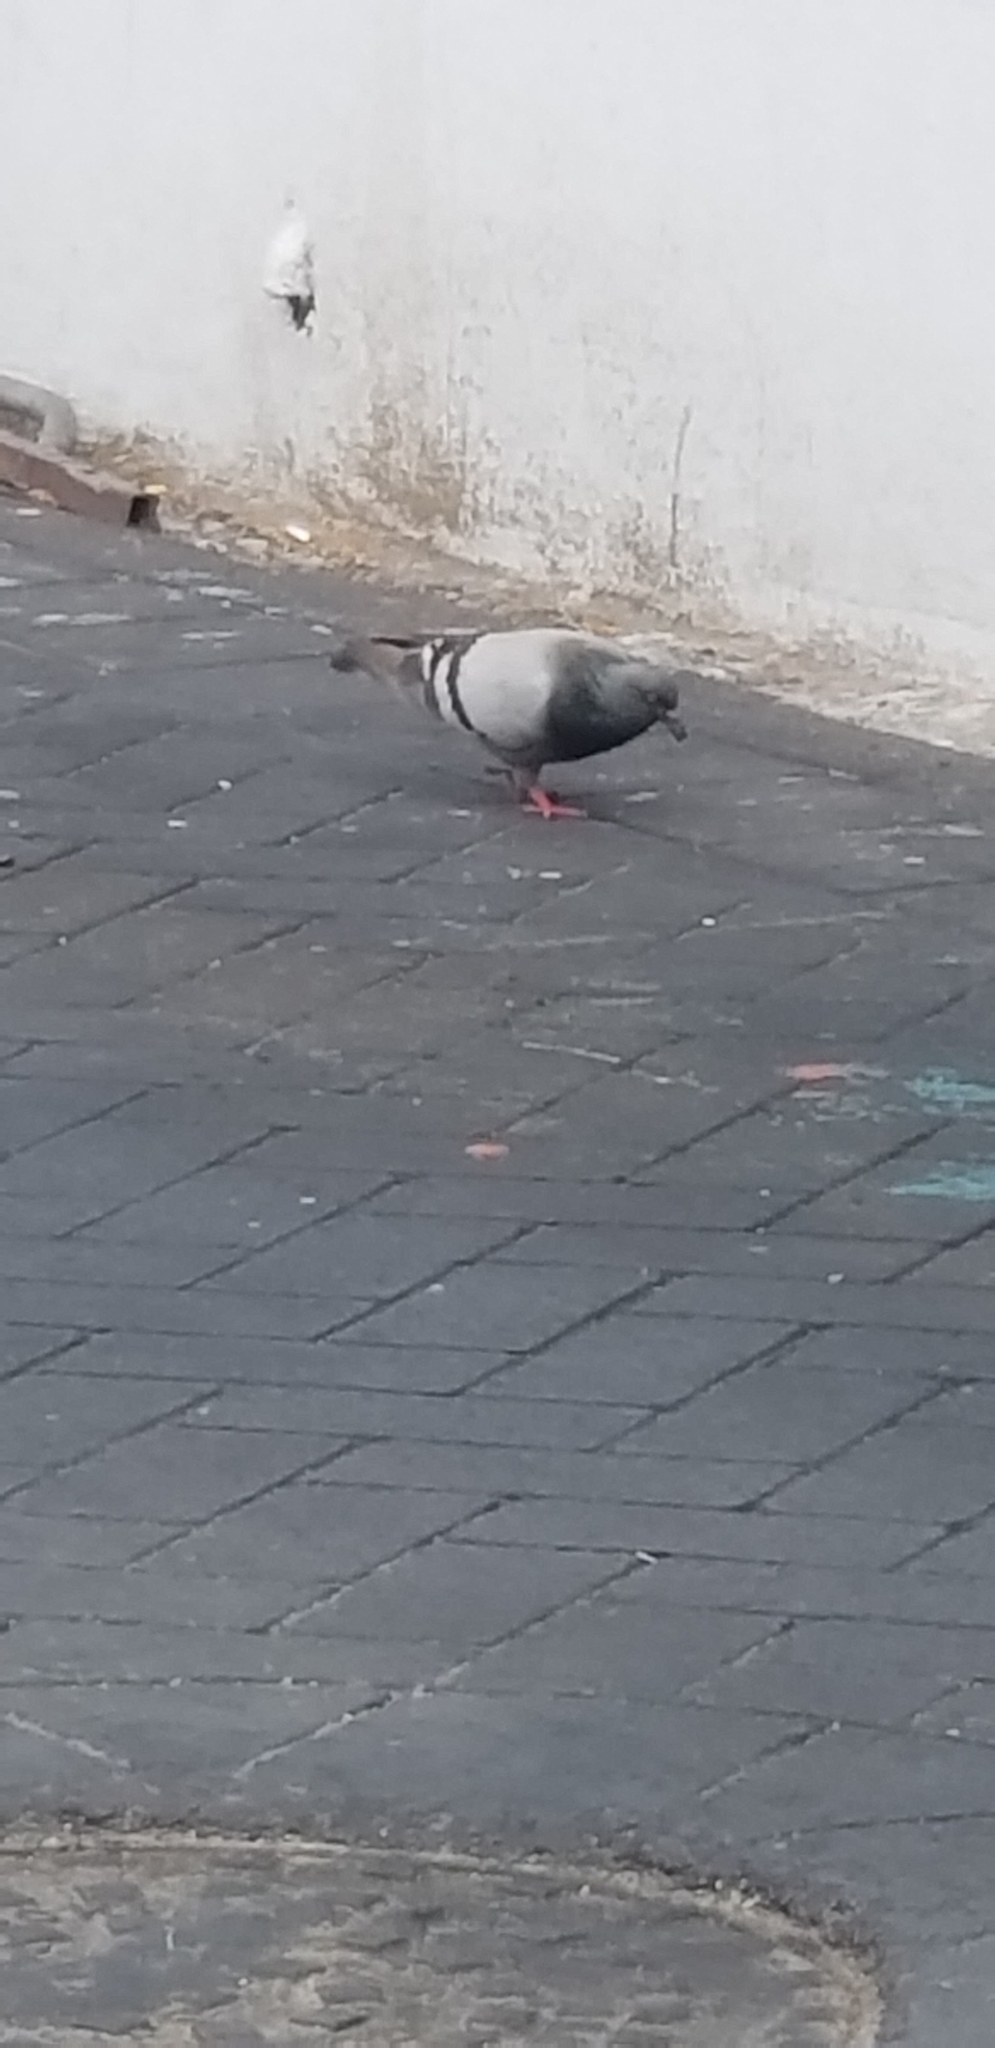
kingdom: Animalia
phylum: Chordata
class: Aves
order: Columbiformes
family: Columbidae
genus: Columba
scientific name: Columba livia
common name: Rock pigeon
